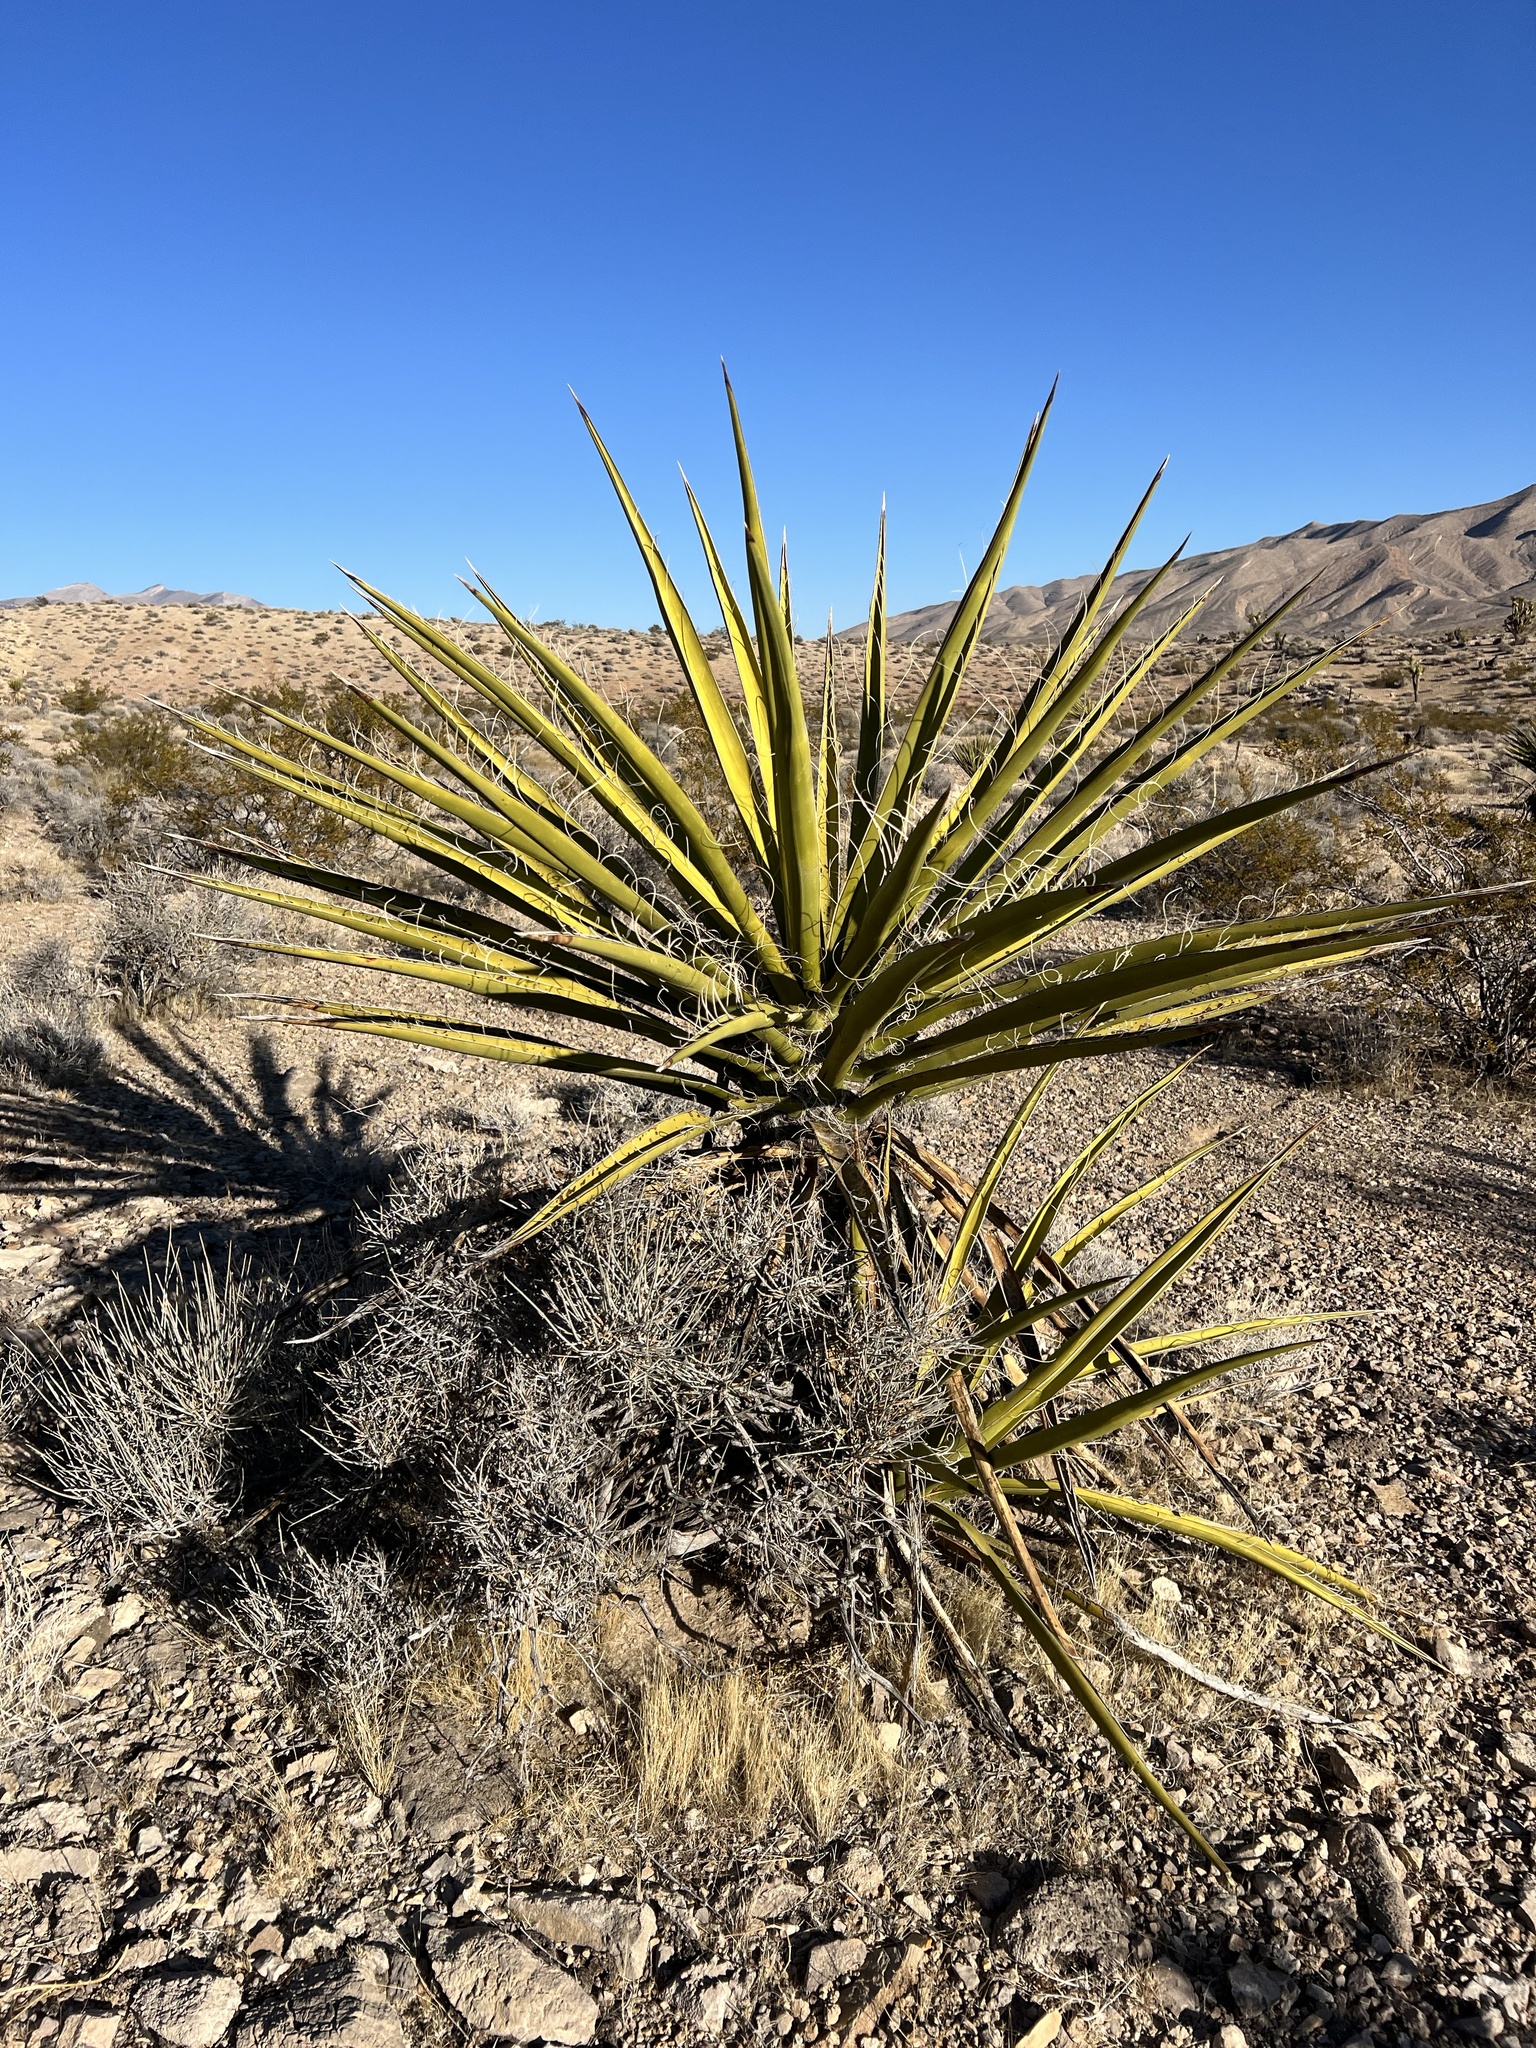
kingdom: Plantae
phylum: Tracheophyta
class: Liliopsida
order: Asparagales
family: Asparagaceae
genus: Yucca
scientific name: Yucca schidigera
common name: Mojave yucca
